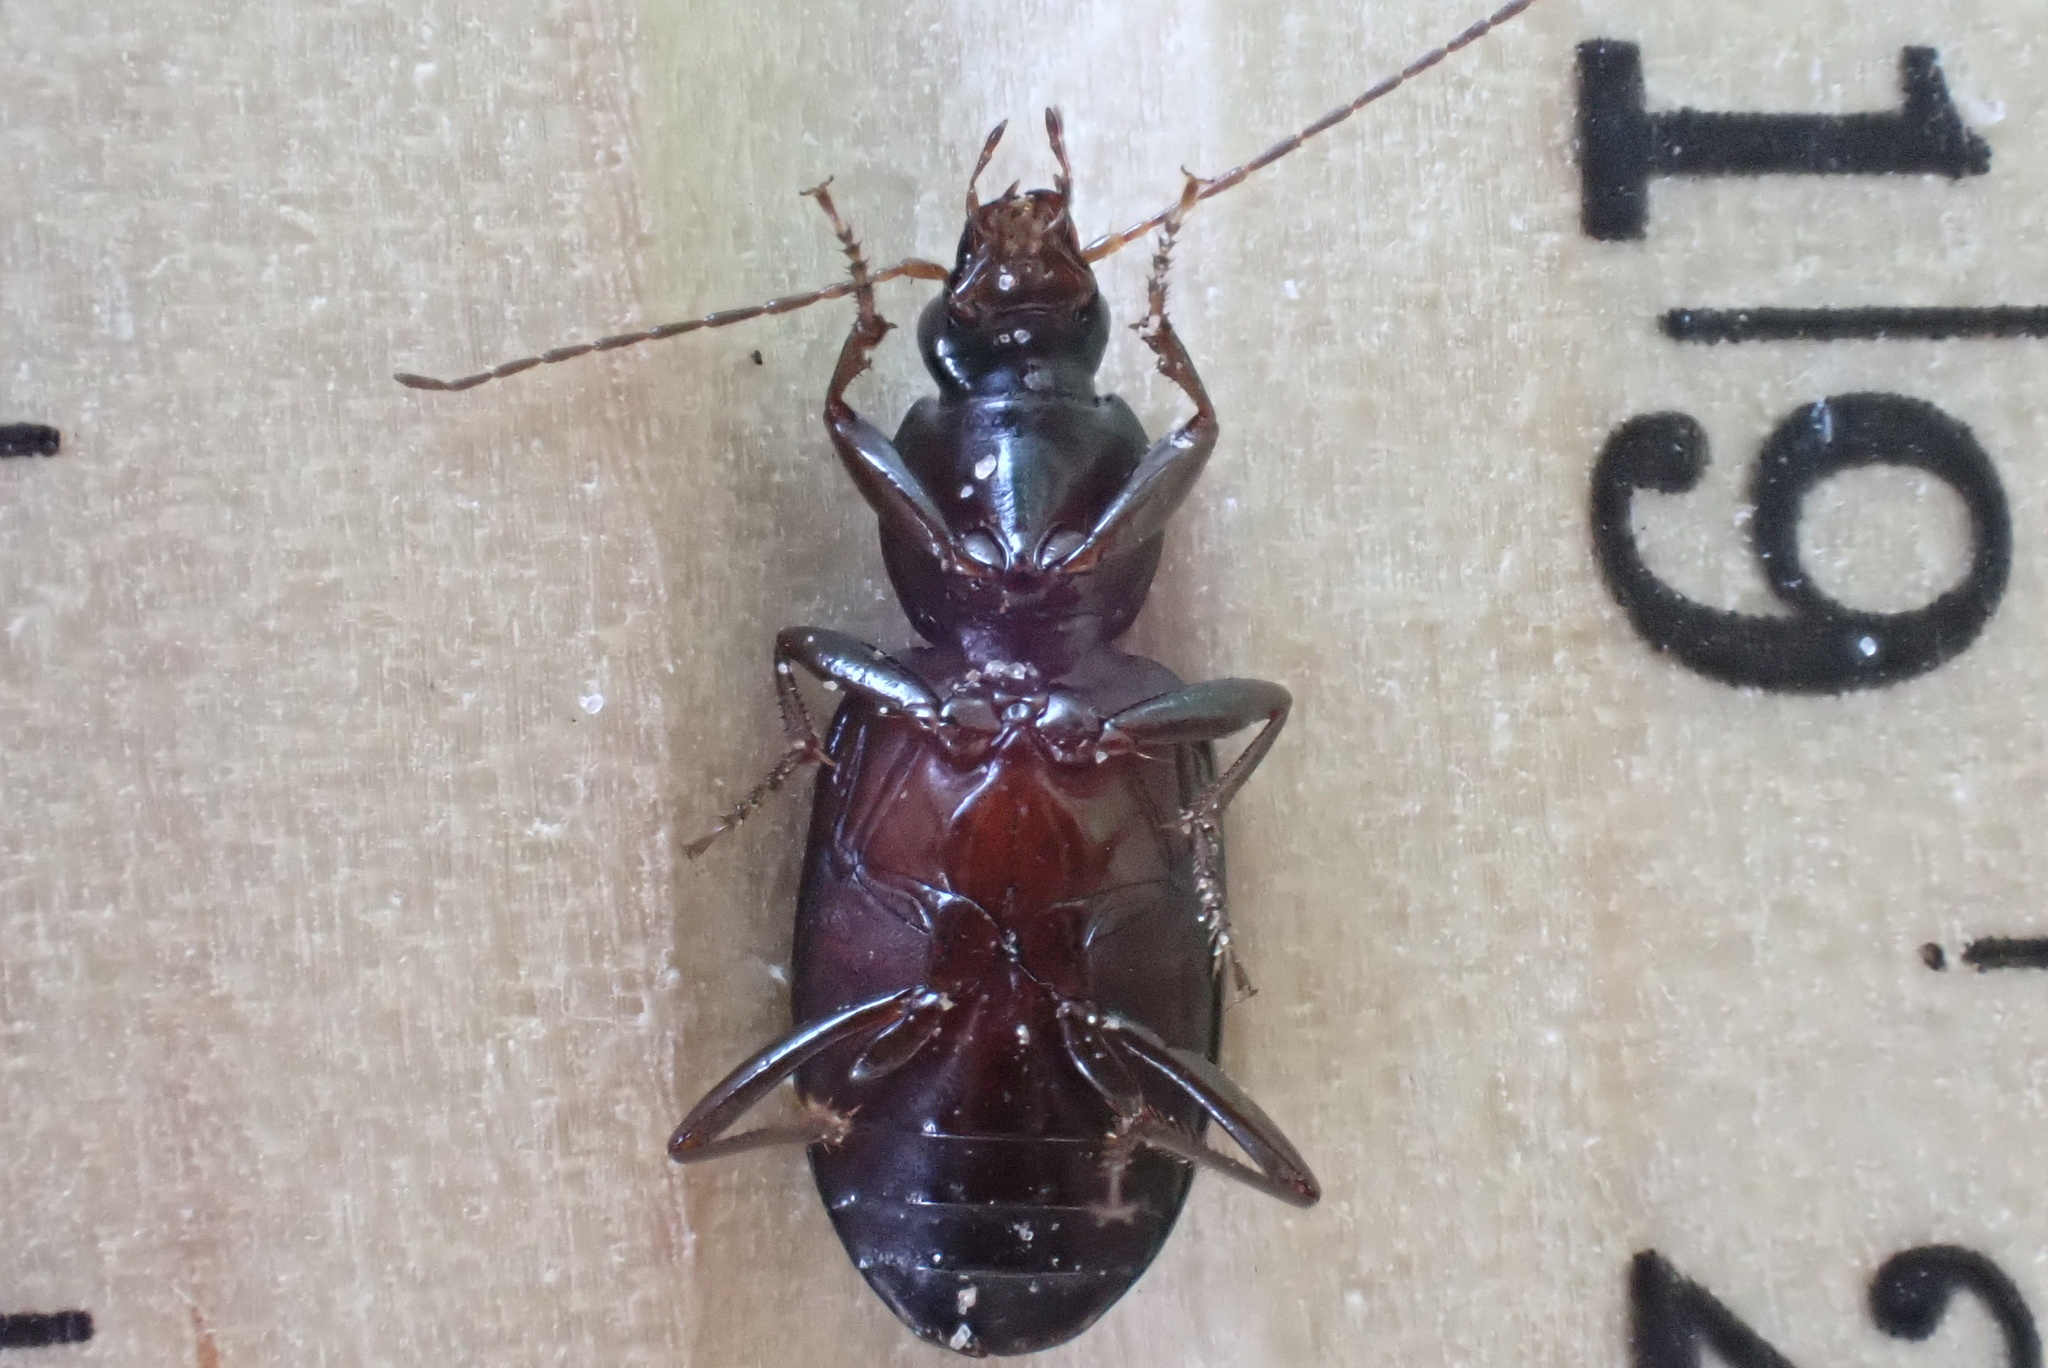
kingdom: Animalia
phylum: Arthropoda
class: Insecta
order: Coleoptera
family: Carabidae
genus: Agonum
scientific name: Agonum punctiforme
